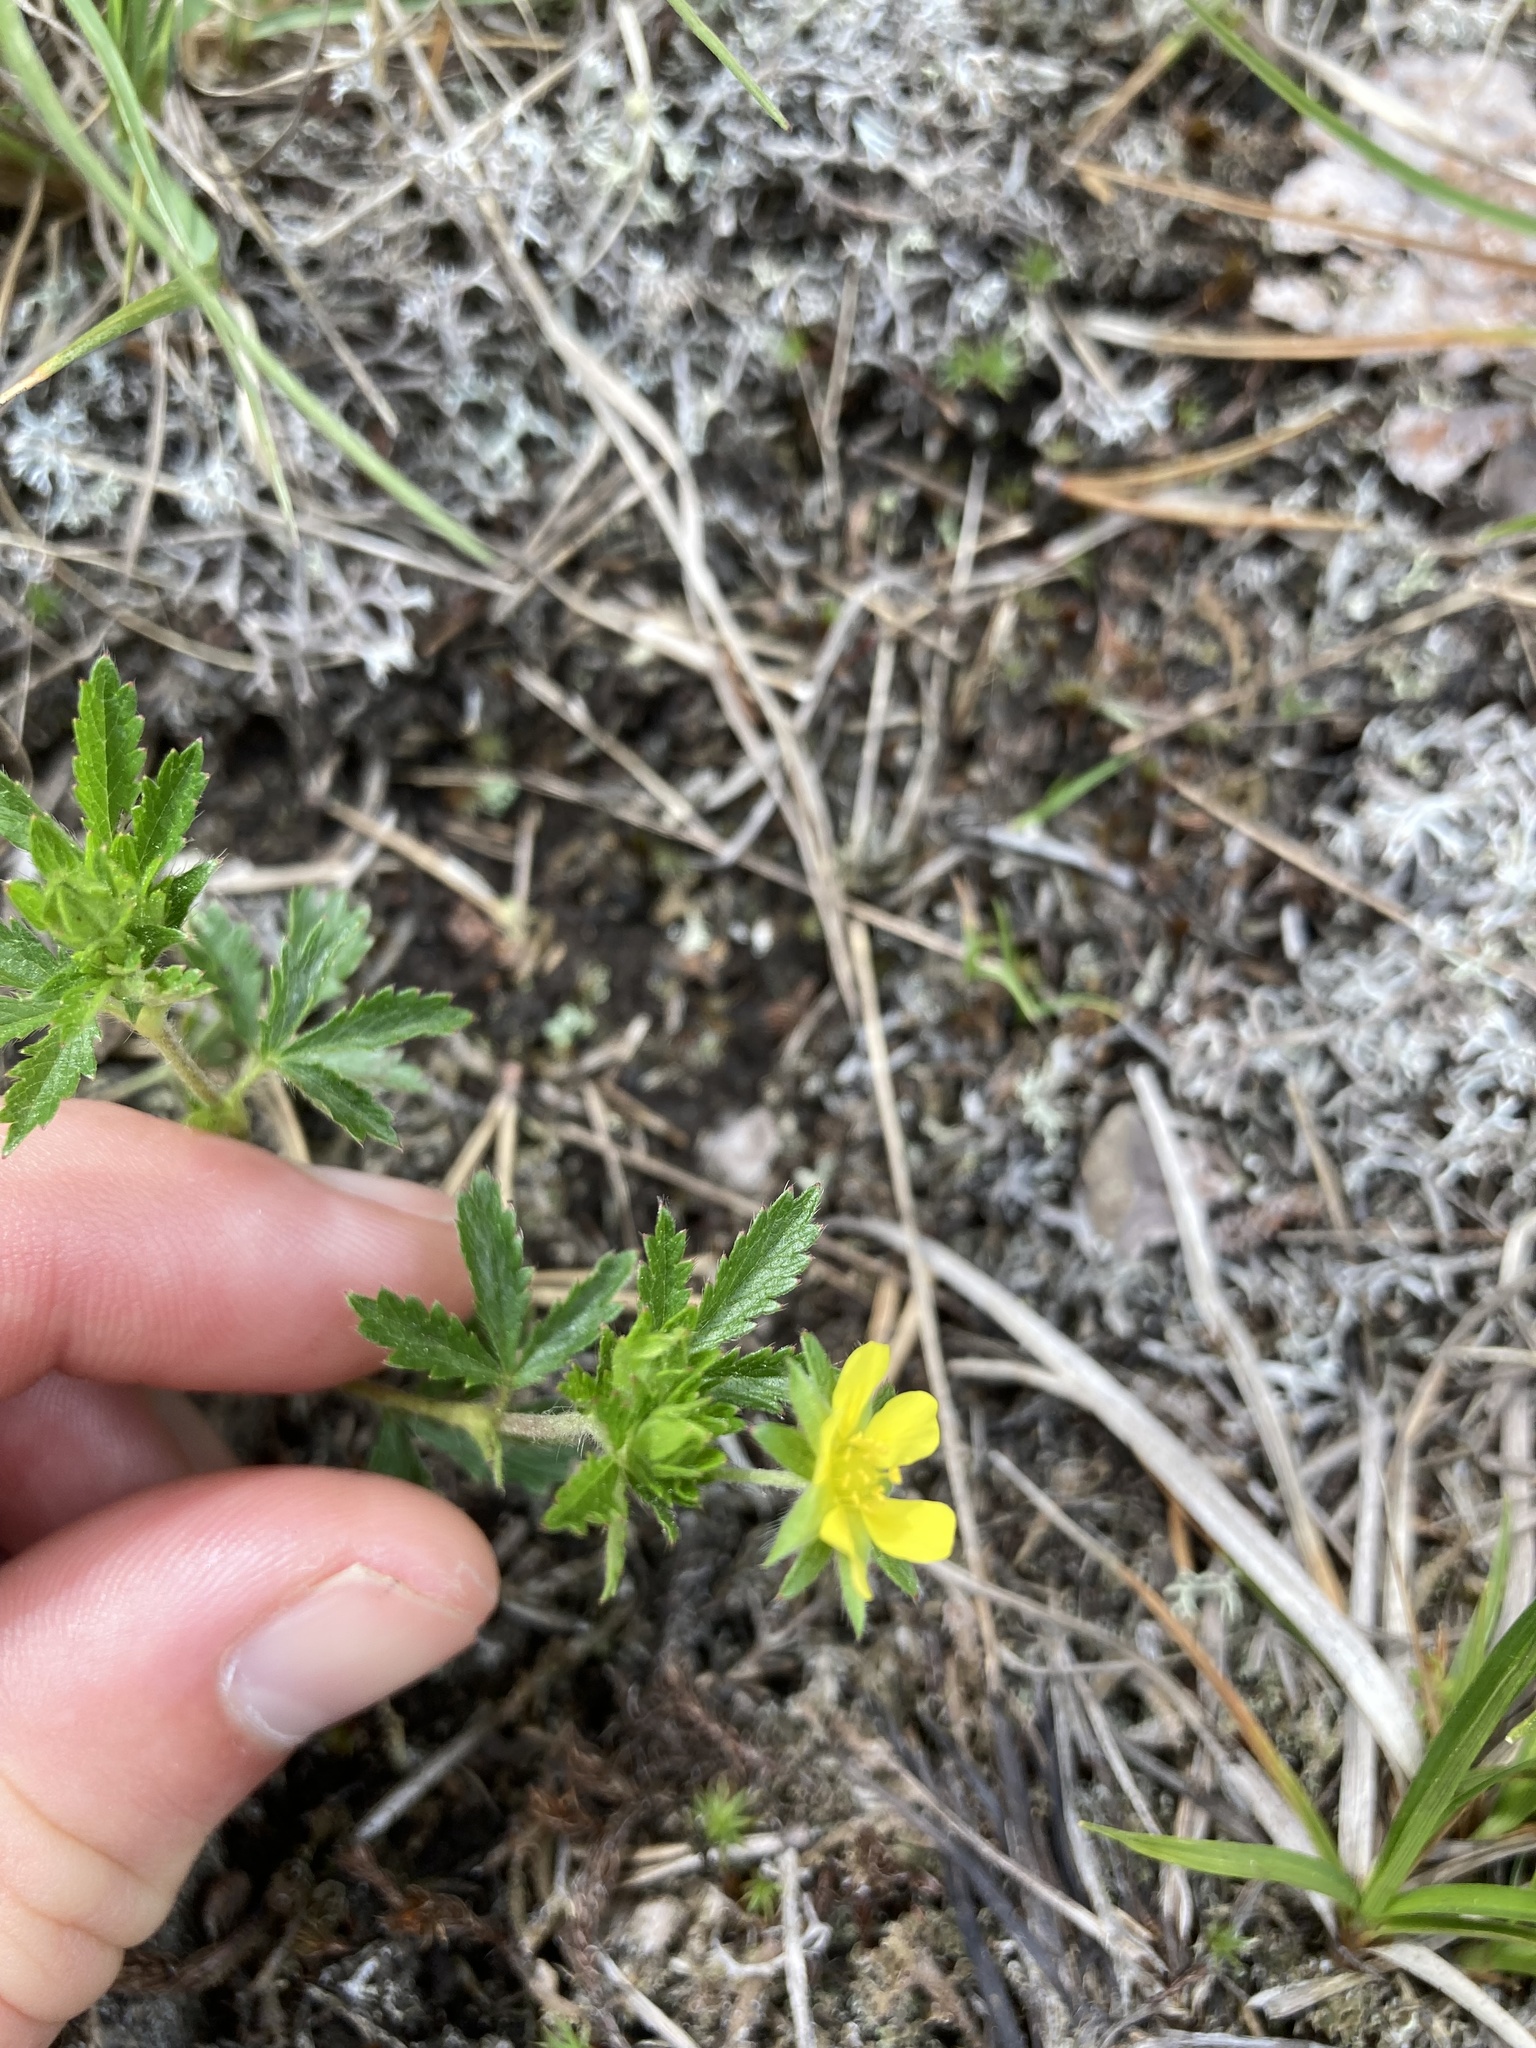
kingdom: Plantae
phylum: Tracheophyta
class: Magnoliopsida
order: Rosales
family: Rosaceae
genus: Potentilla
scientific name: Potentilla norvegica
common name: Ternate-leaved cinquefoil
